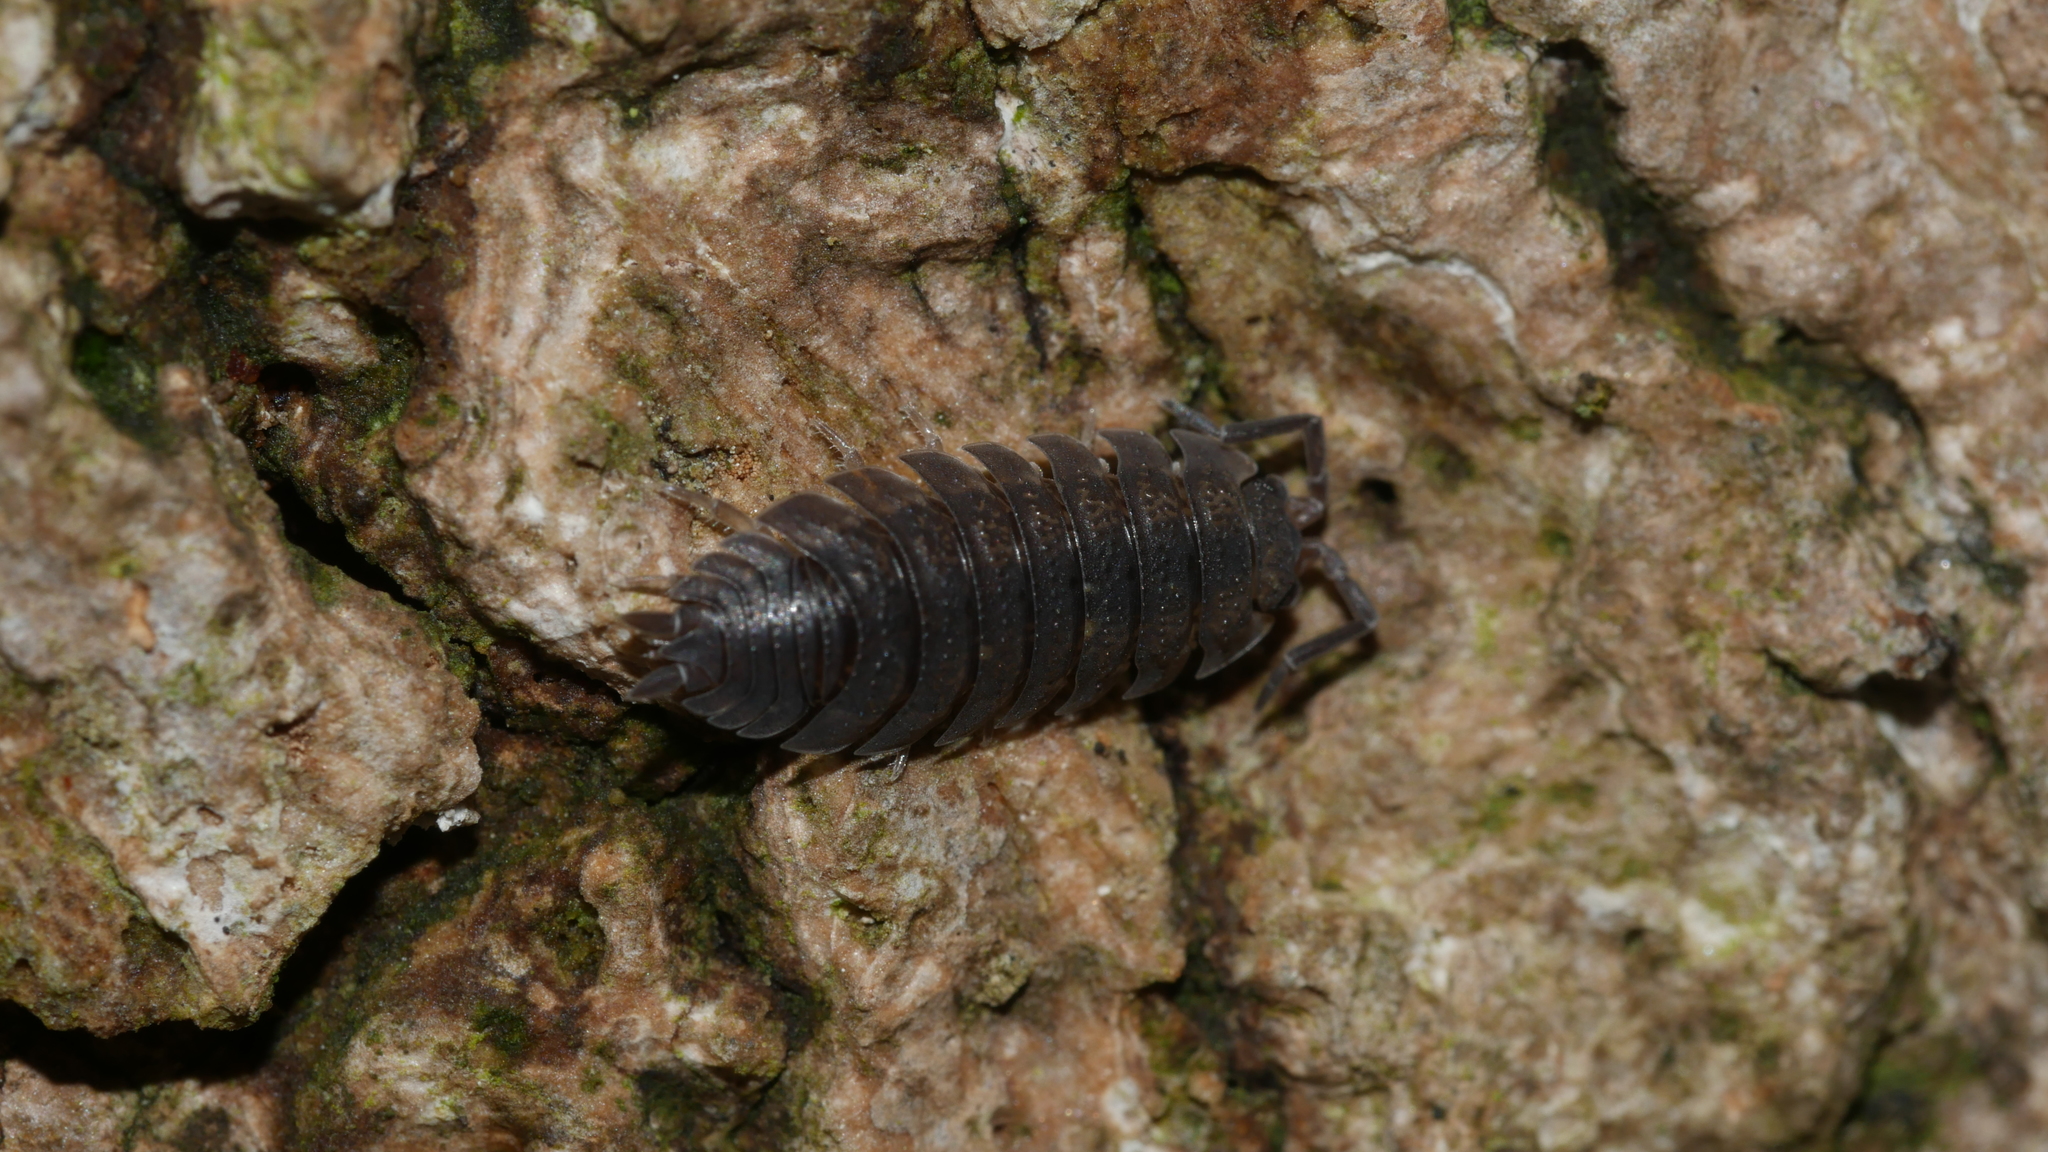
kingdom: Animalia
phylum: Arthropoda
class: Malacostraca
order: Isopoda
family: Porcellionidae
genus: Porcellio
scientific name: Porcellio scaber
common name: Common rough woodlouse
